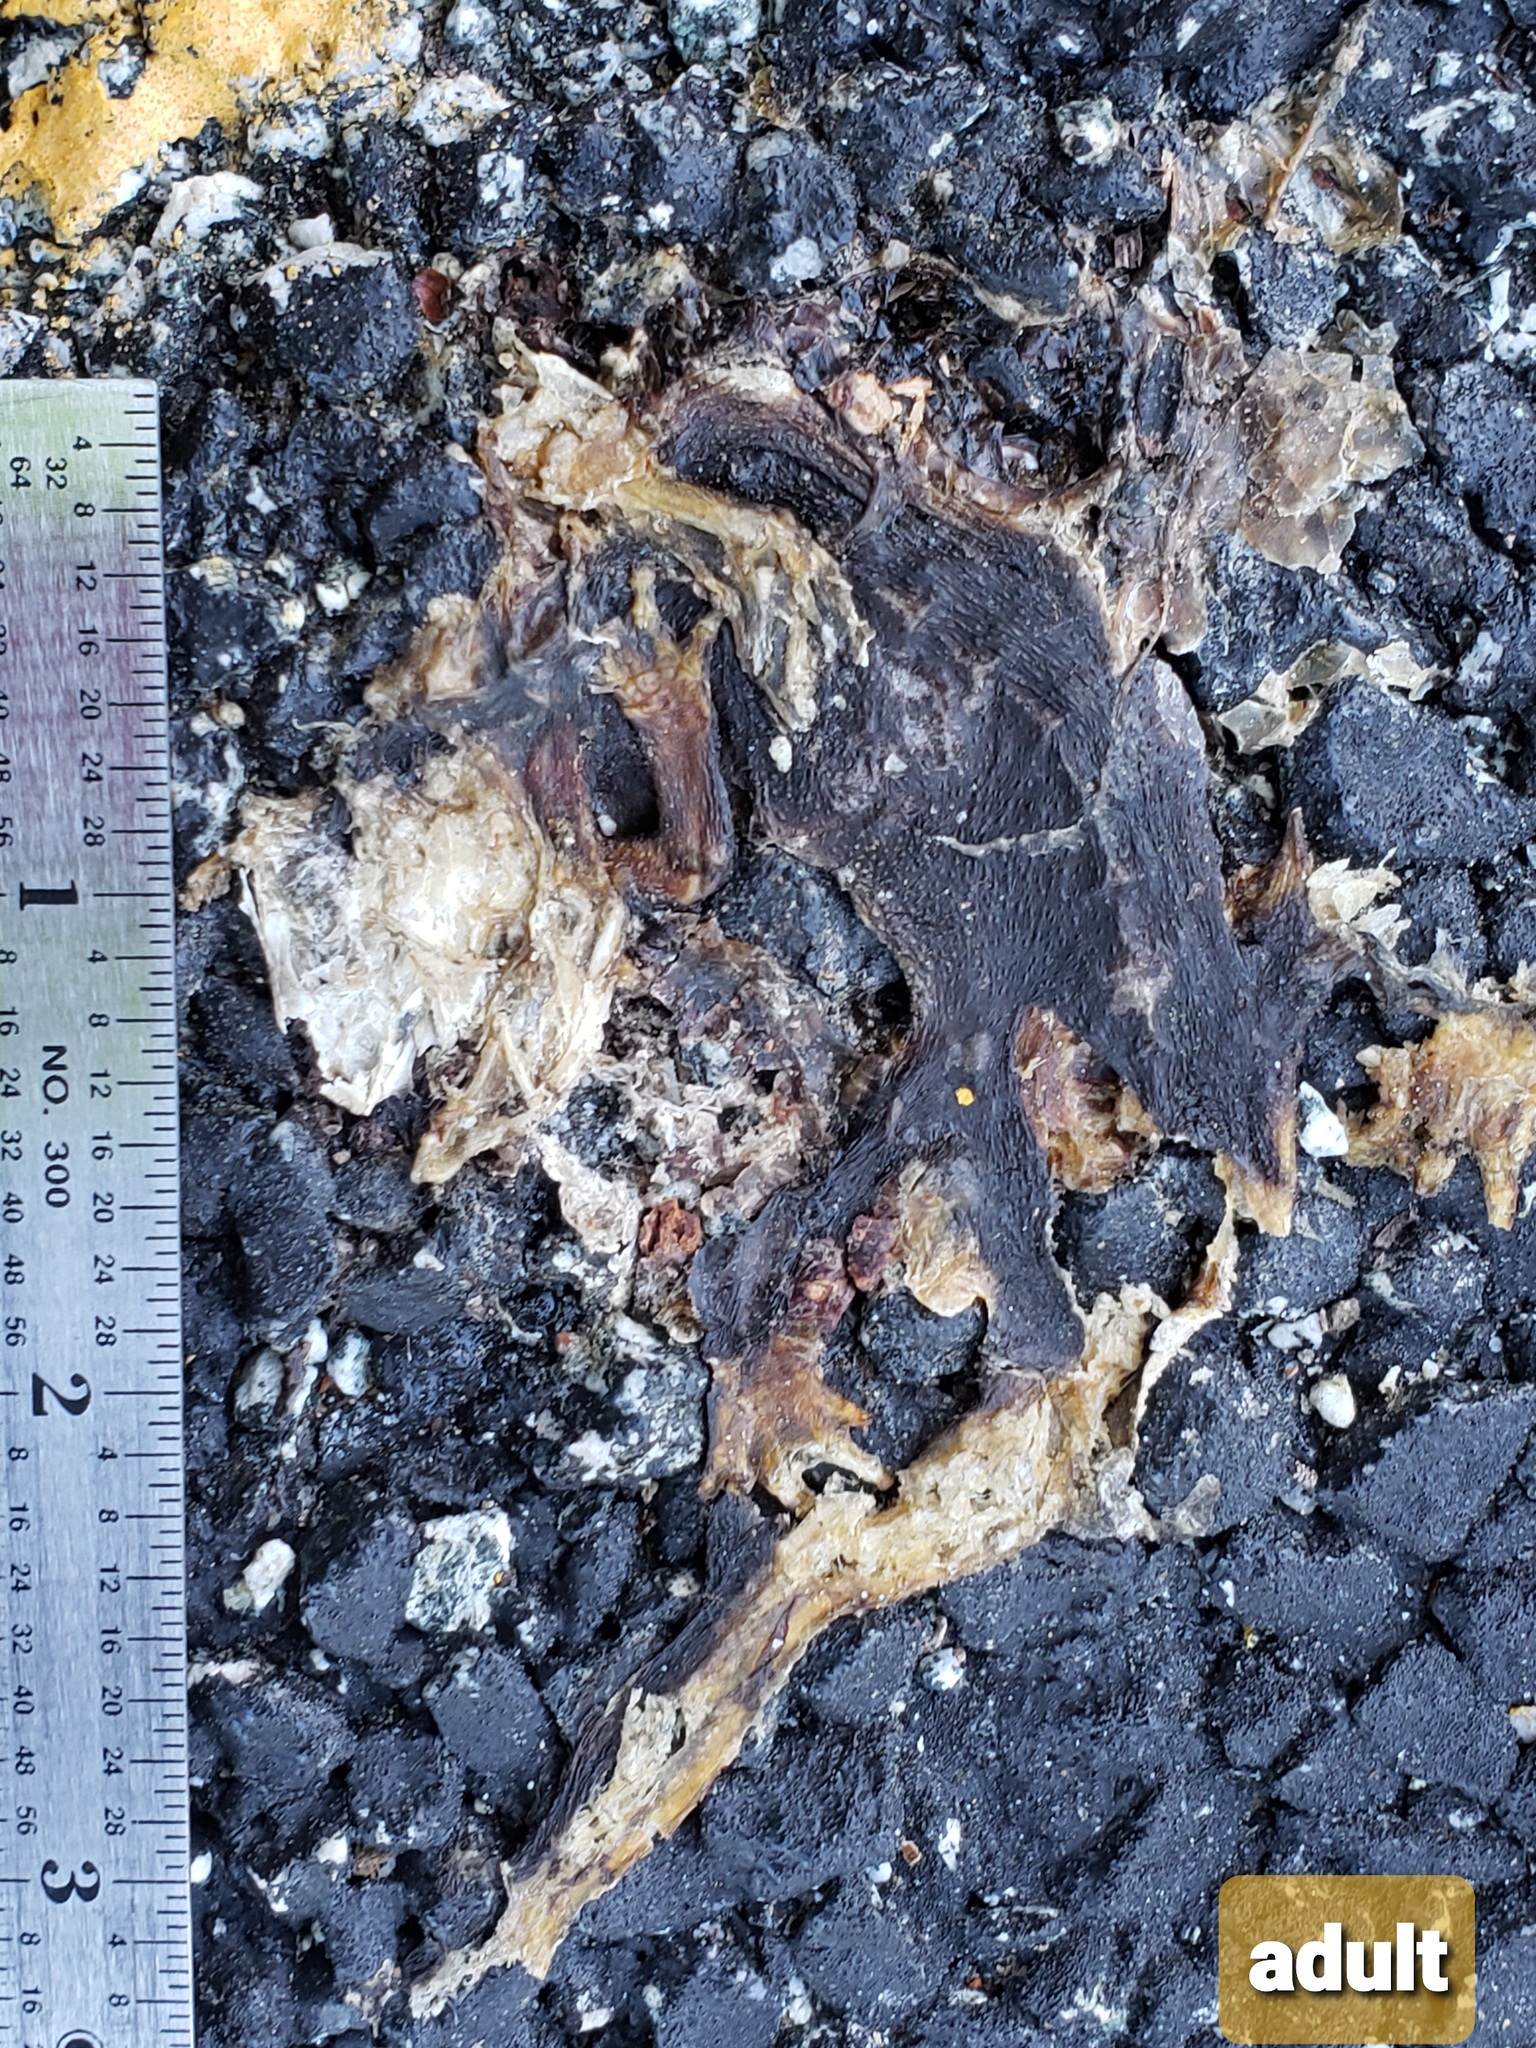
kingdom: Animalia
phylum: Chordata
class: Amphibia
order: Caudata
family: Salamandridae
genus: Taricha
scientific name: Taricha
